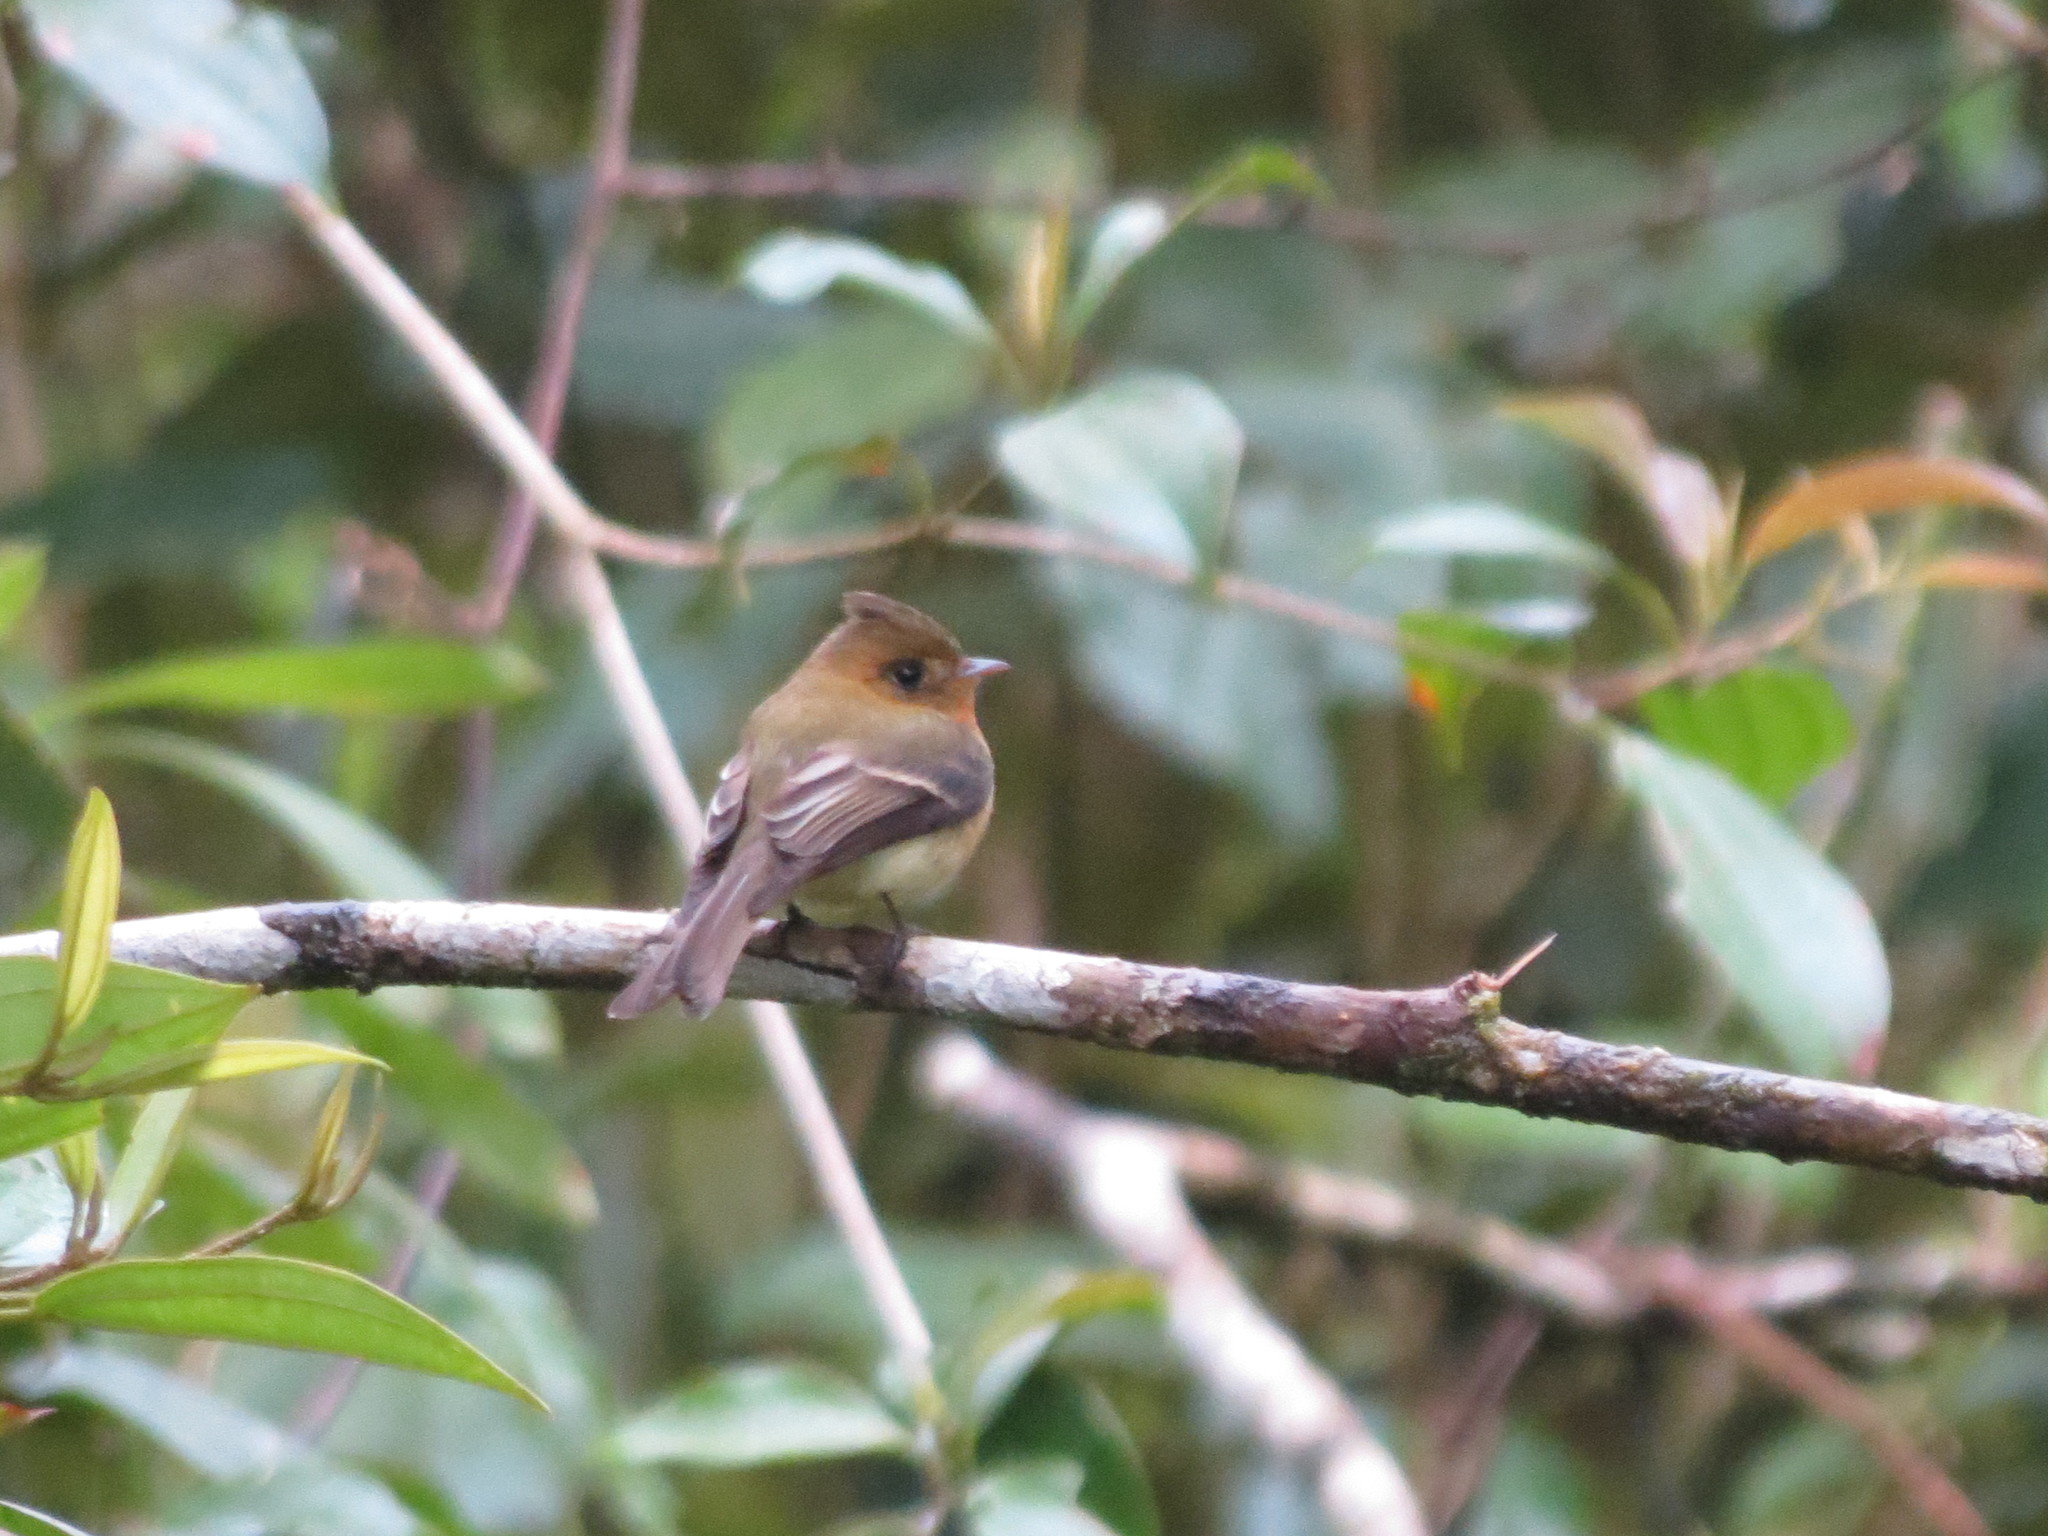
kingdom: Animalia
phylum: Chordata
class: Aves
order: Passeriformes
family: Tyrannidae
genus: Mitrephanes
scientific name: Mitrephanes phaeocercus
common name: Northern tufted flycatcher
